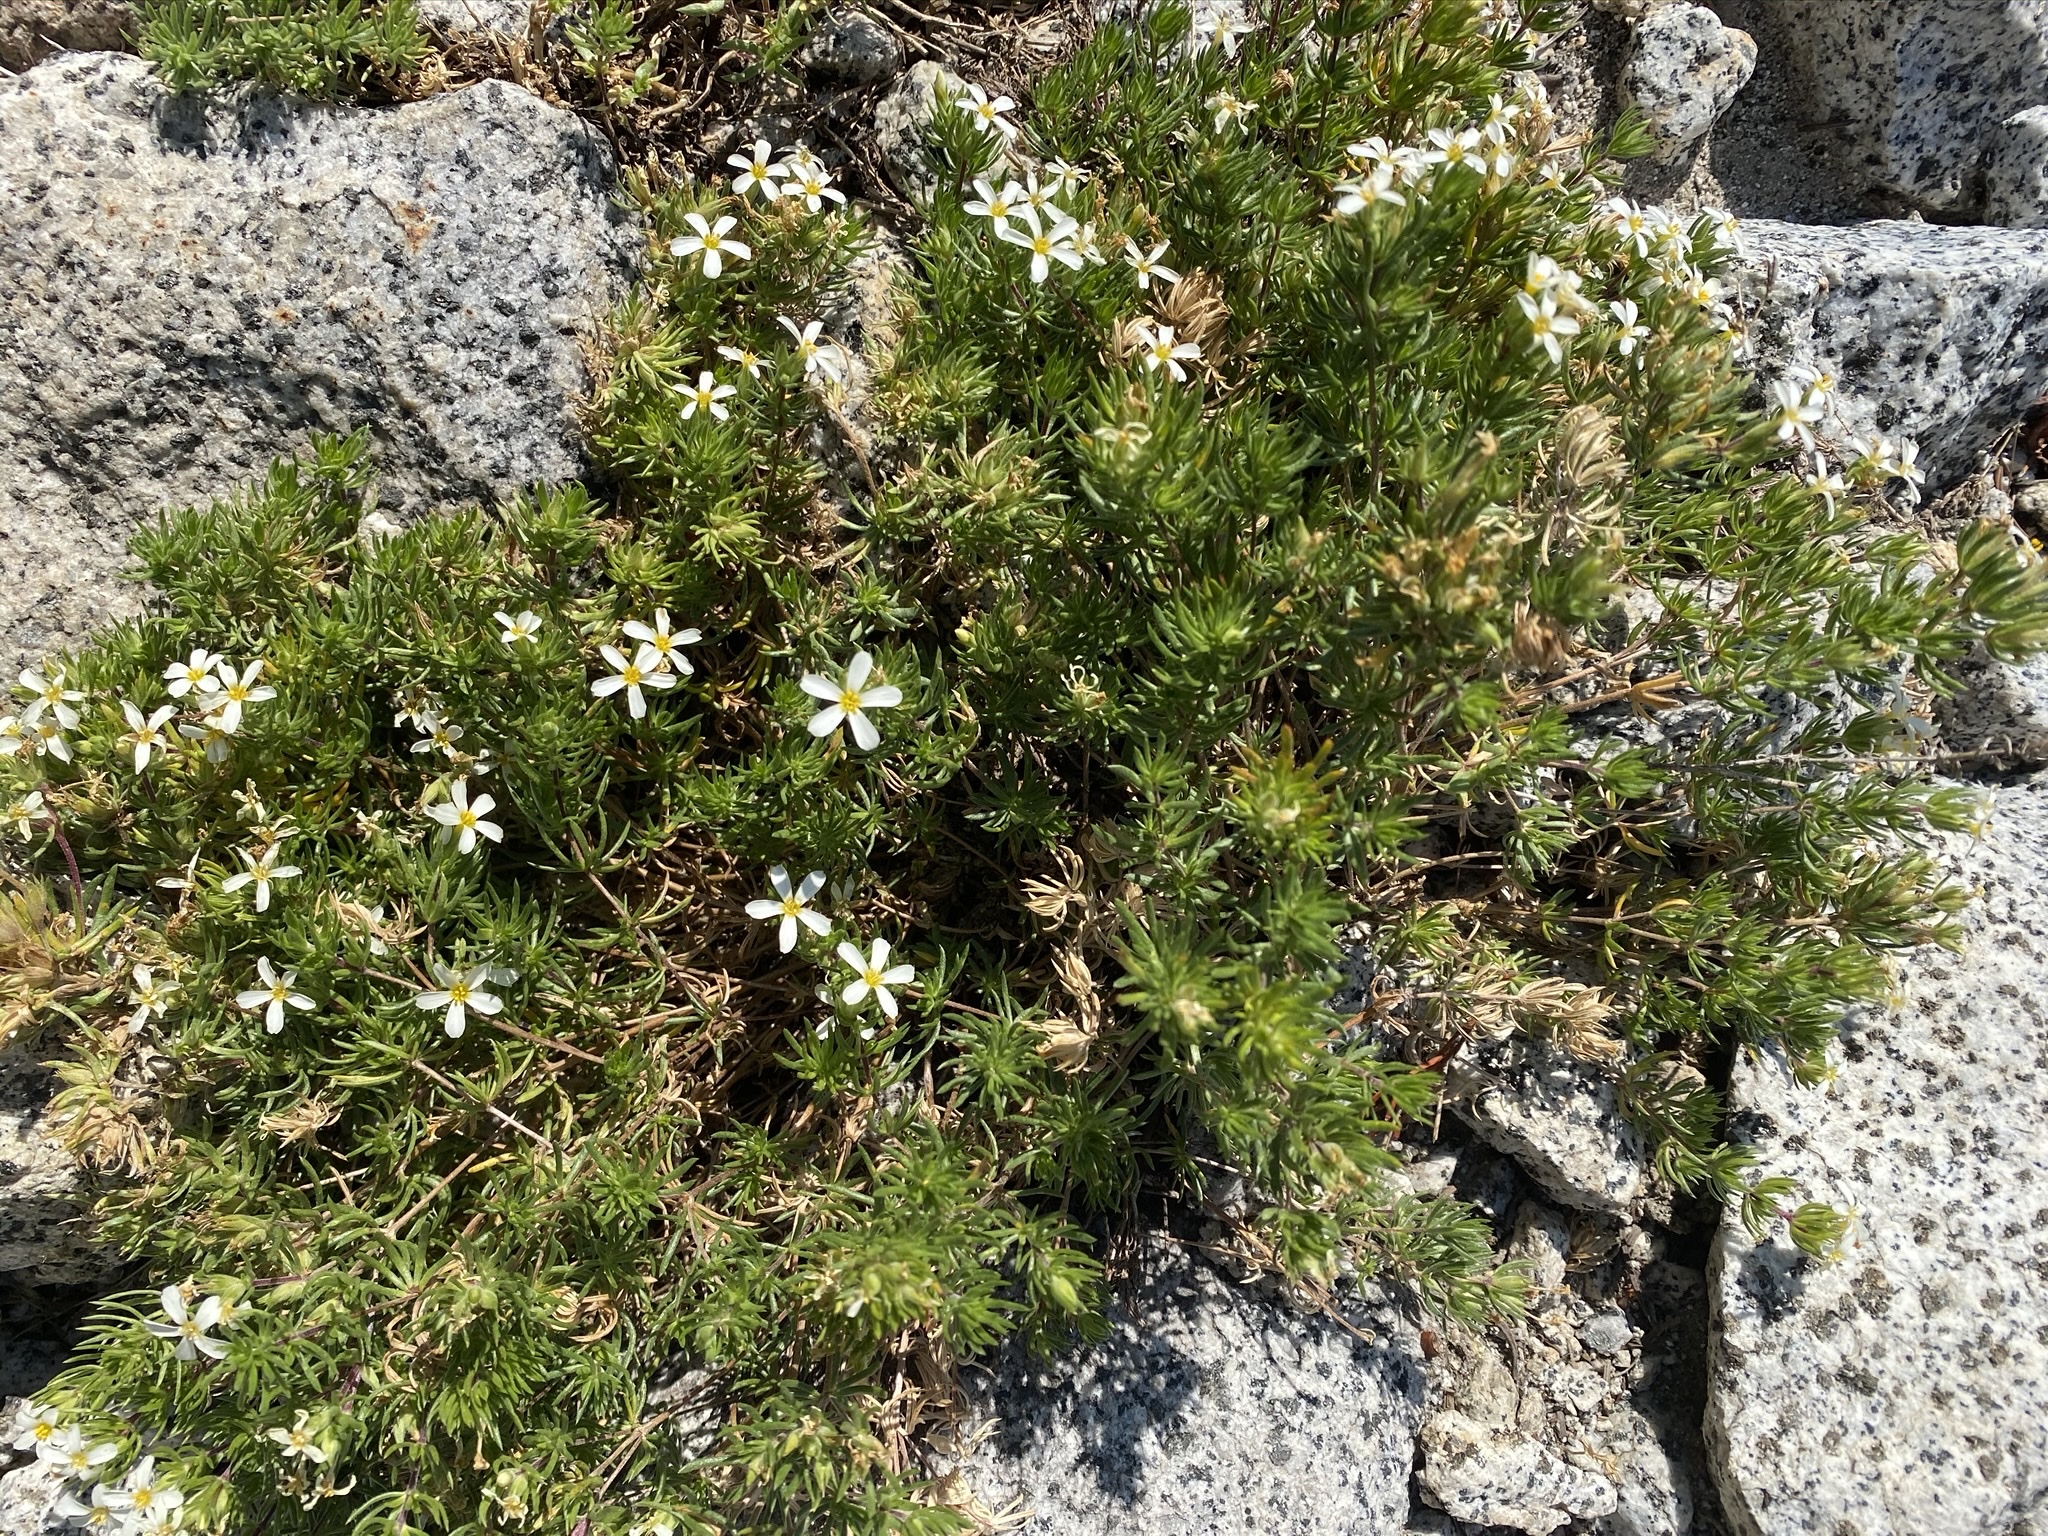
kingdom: Plantae
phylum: Tracheophyta
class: Magnoliopsida
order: Ericales
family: Polemoniaceae
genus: Leptosiphon
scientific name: Leptosiphon nuttallii
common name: Nuttall's linanthus
